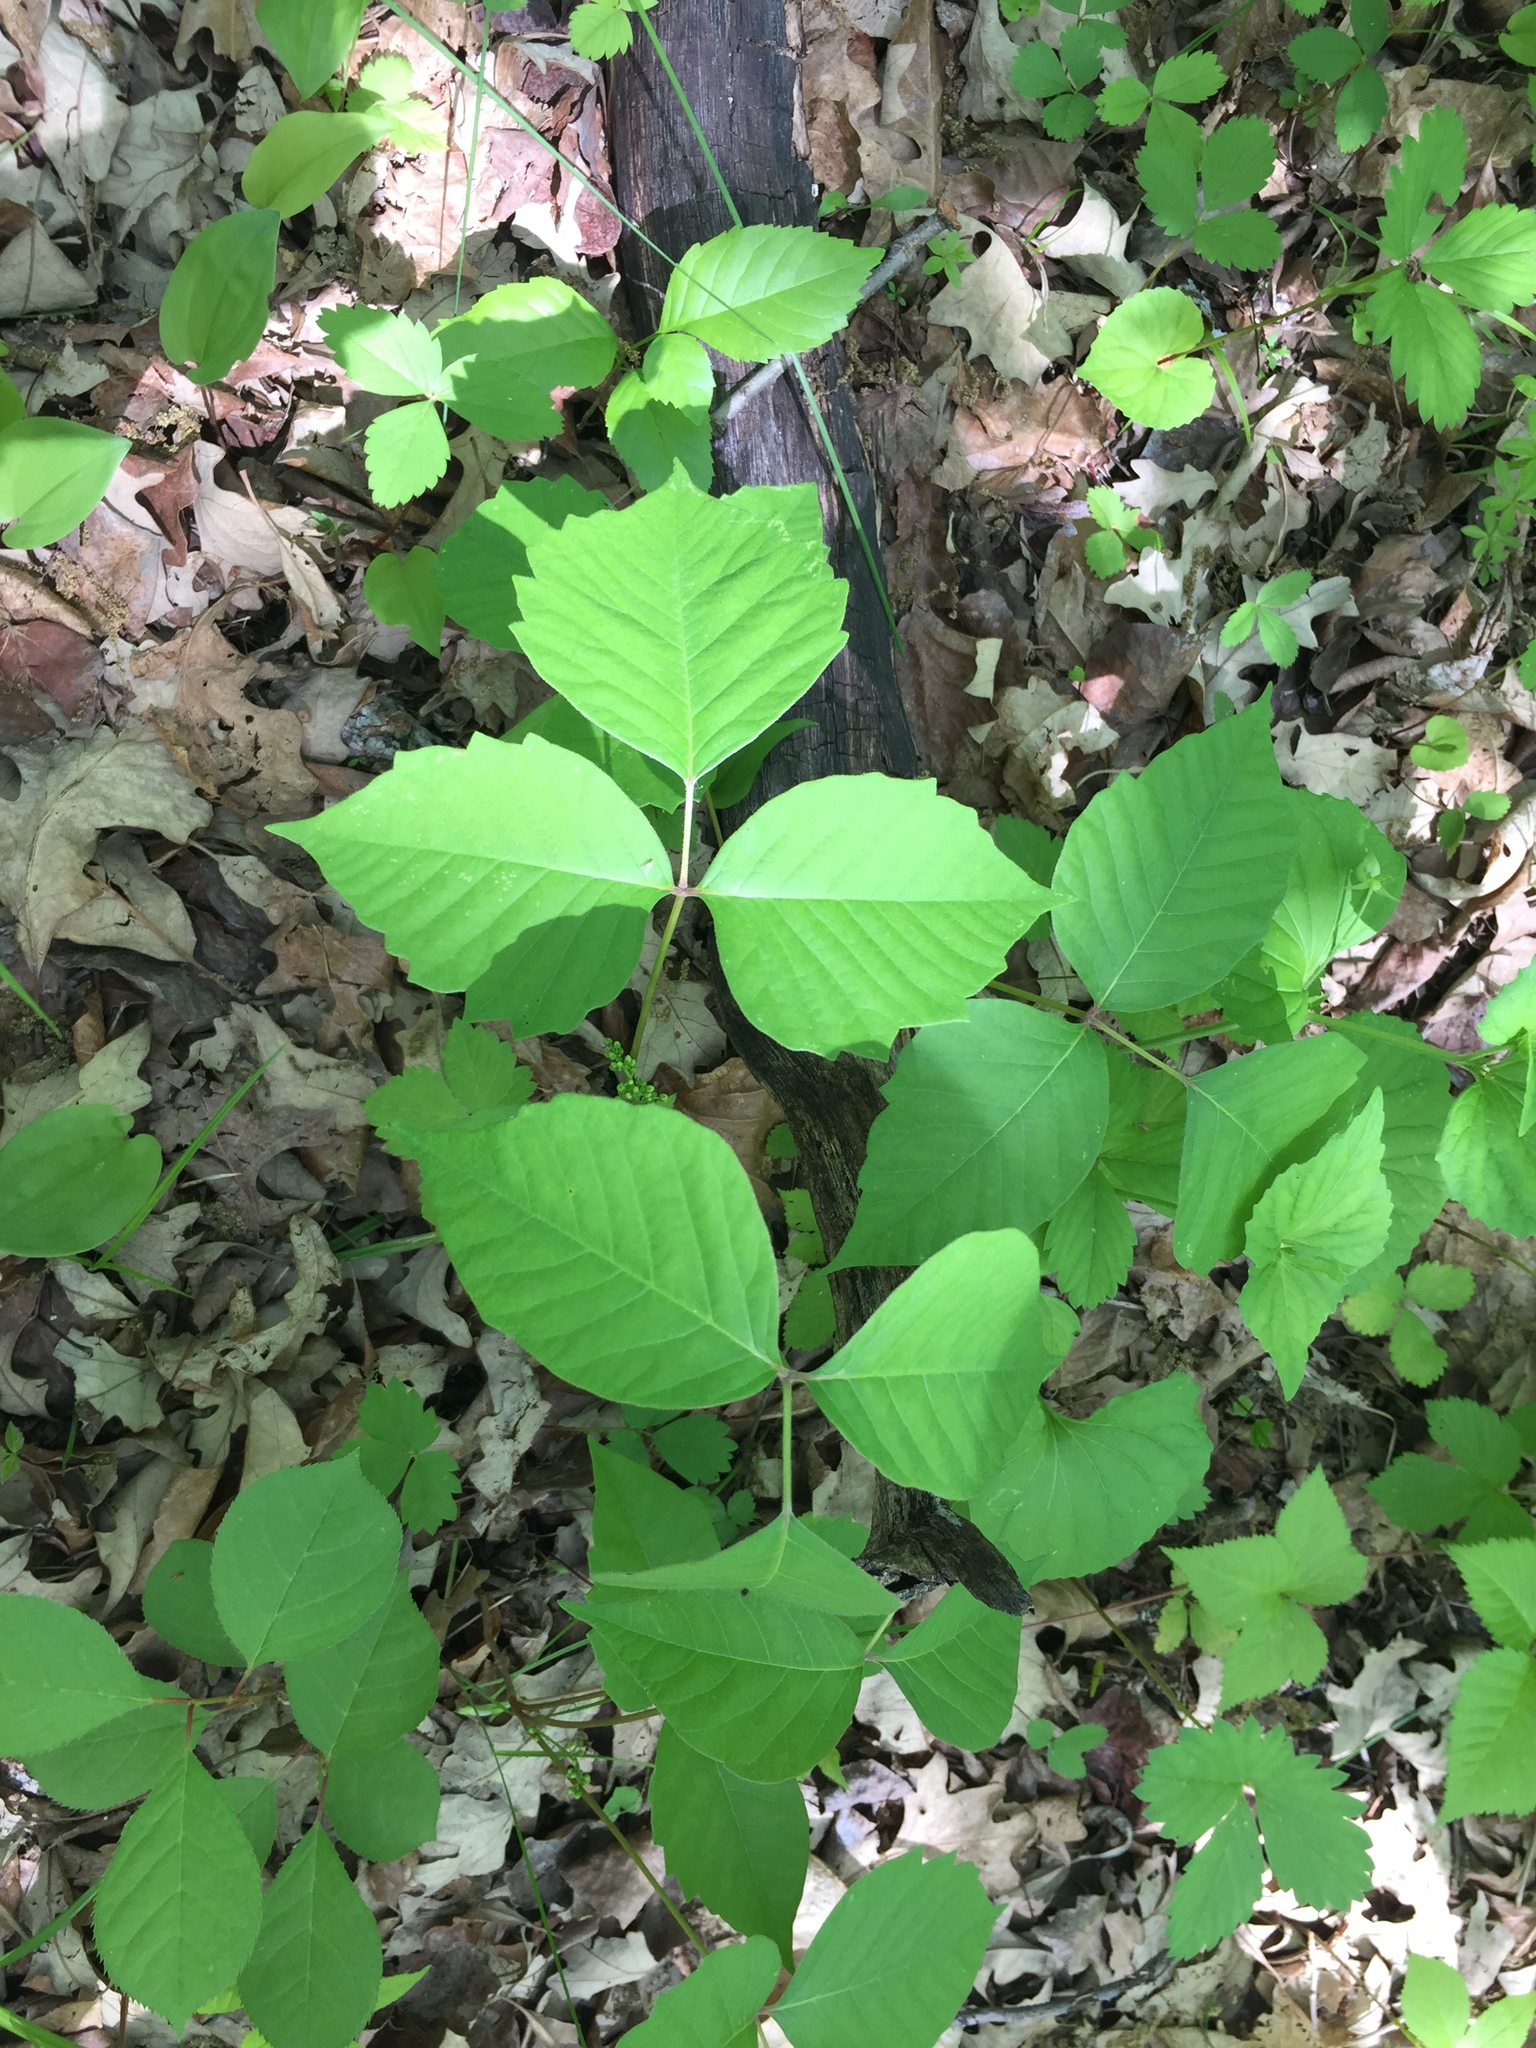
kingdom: Plantae
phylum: Tracheophyta
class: Magnoliopsida
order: Sapindales
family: Anacardiaceae
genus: Toxicodendron
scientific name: Toxicodendron rydbergii
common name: Rydberg's poison-ivy
